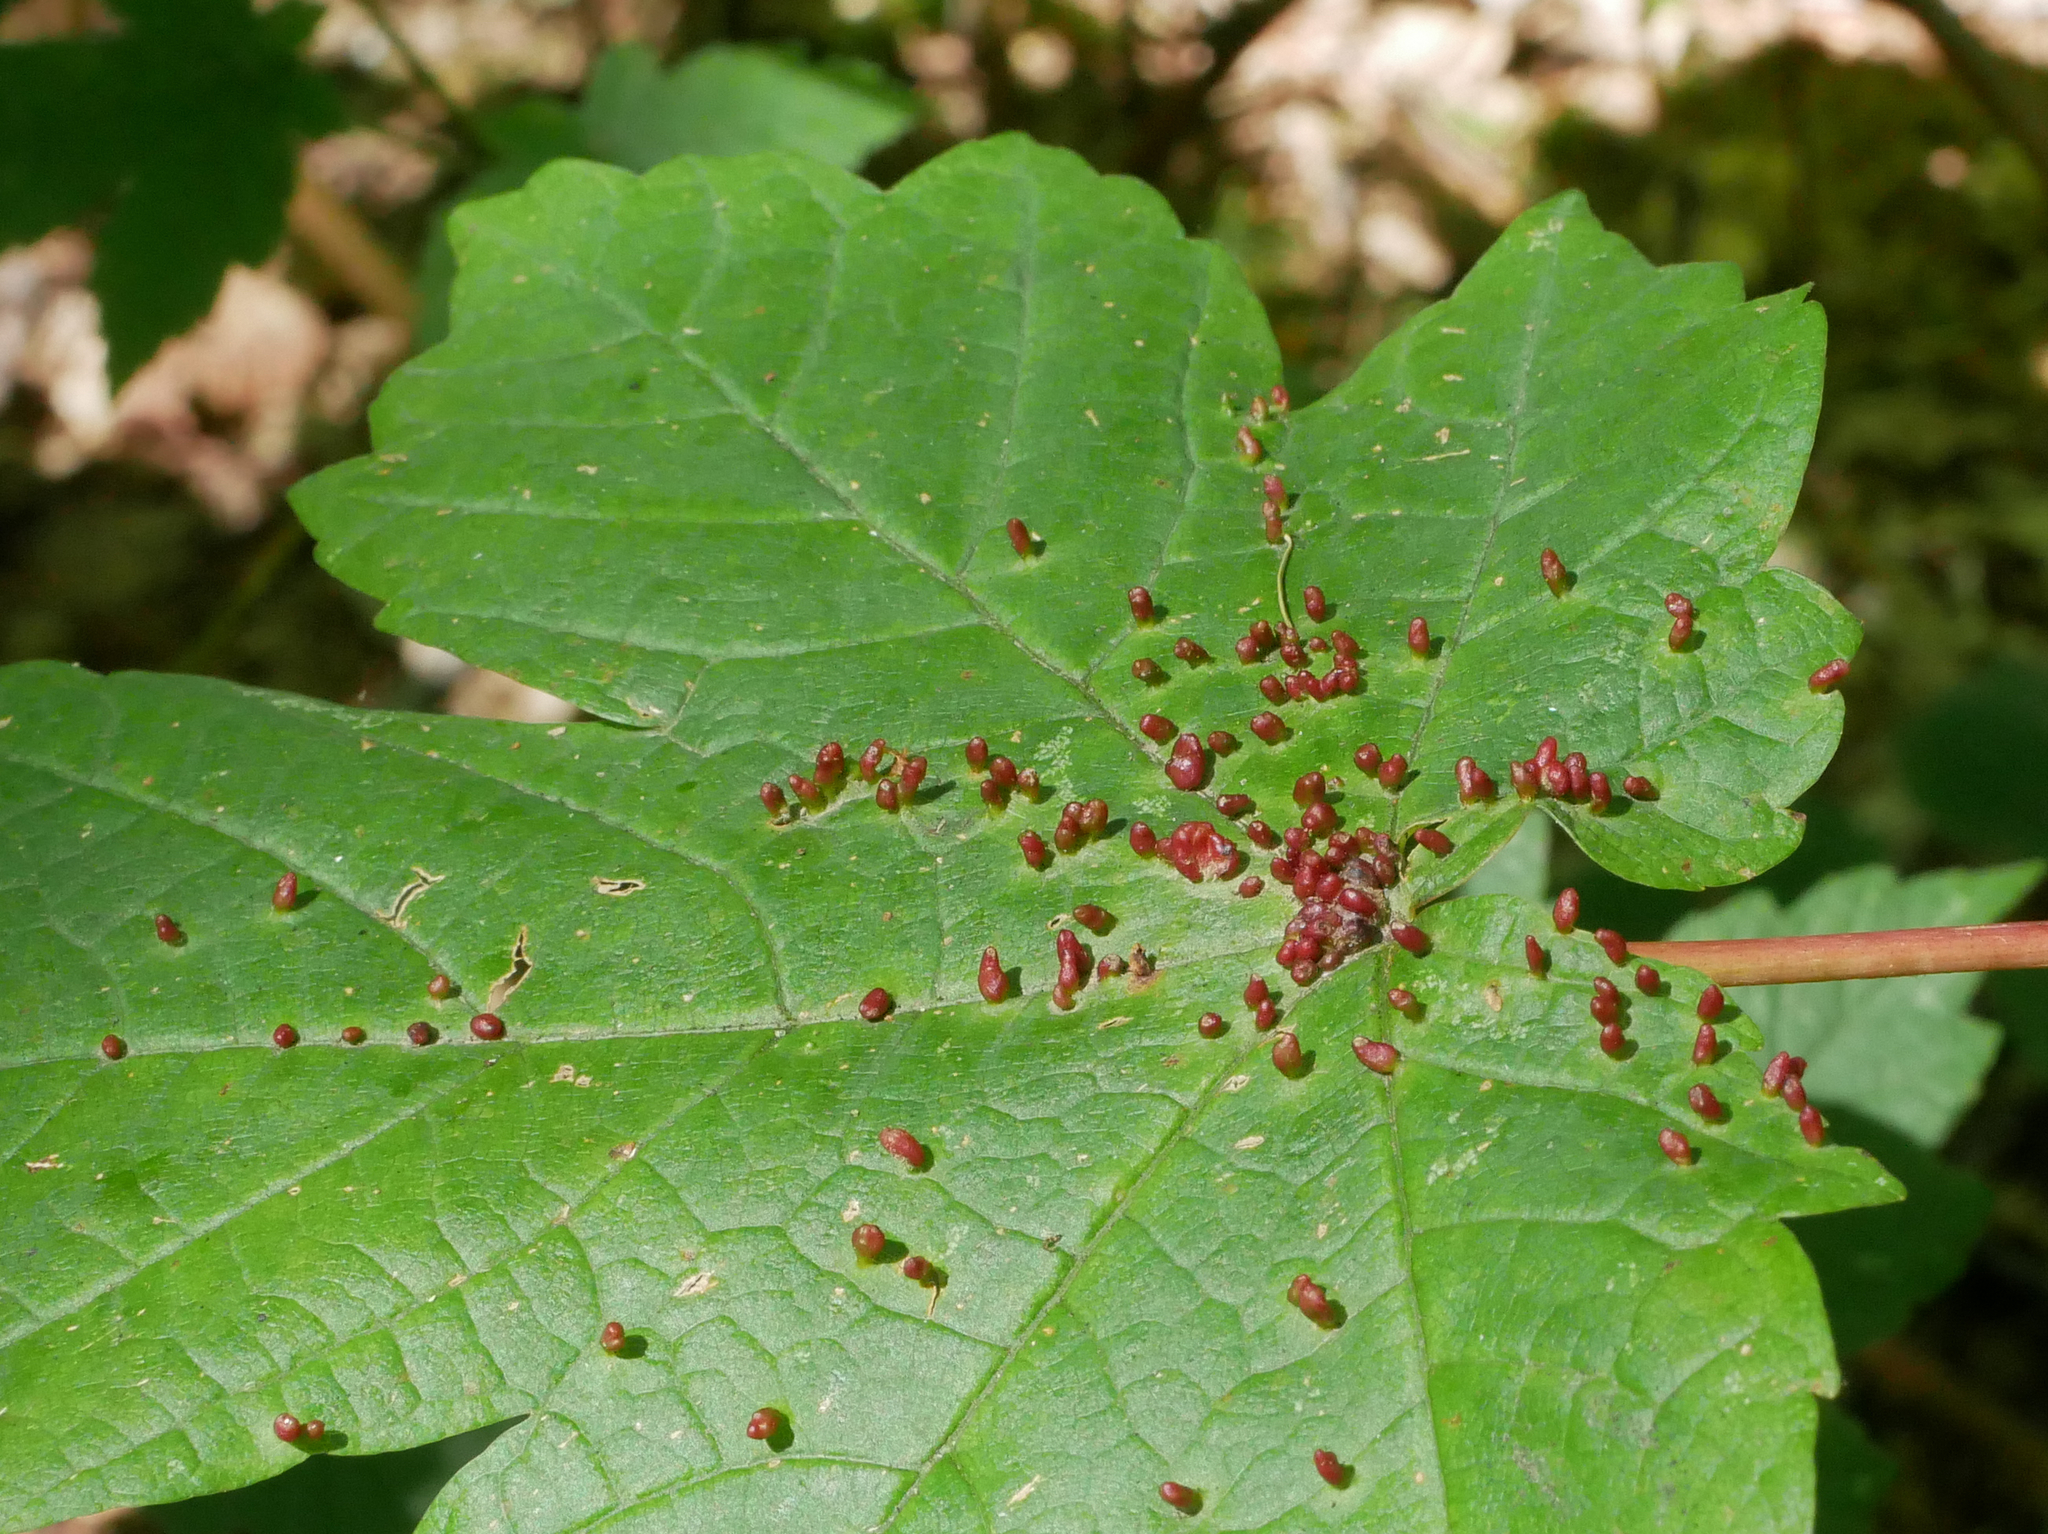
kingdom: Animalia
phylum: Arthropoda
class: Arachnida
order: Trombidiformes
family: Eriophyidae
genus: Aceria
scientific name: Aceria cephaloneus
